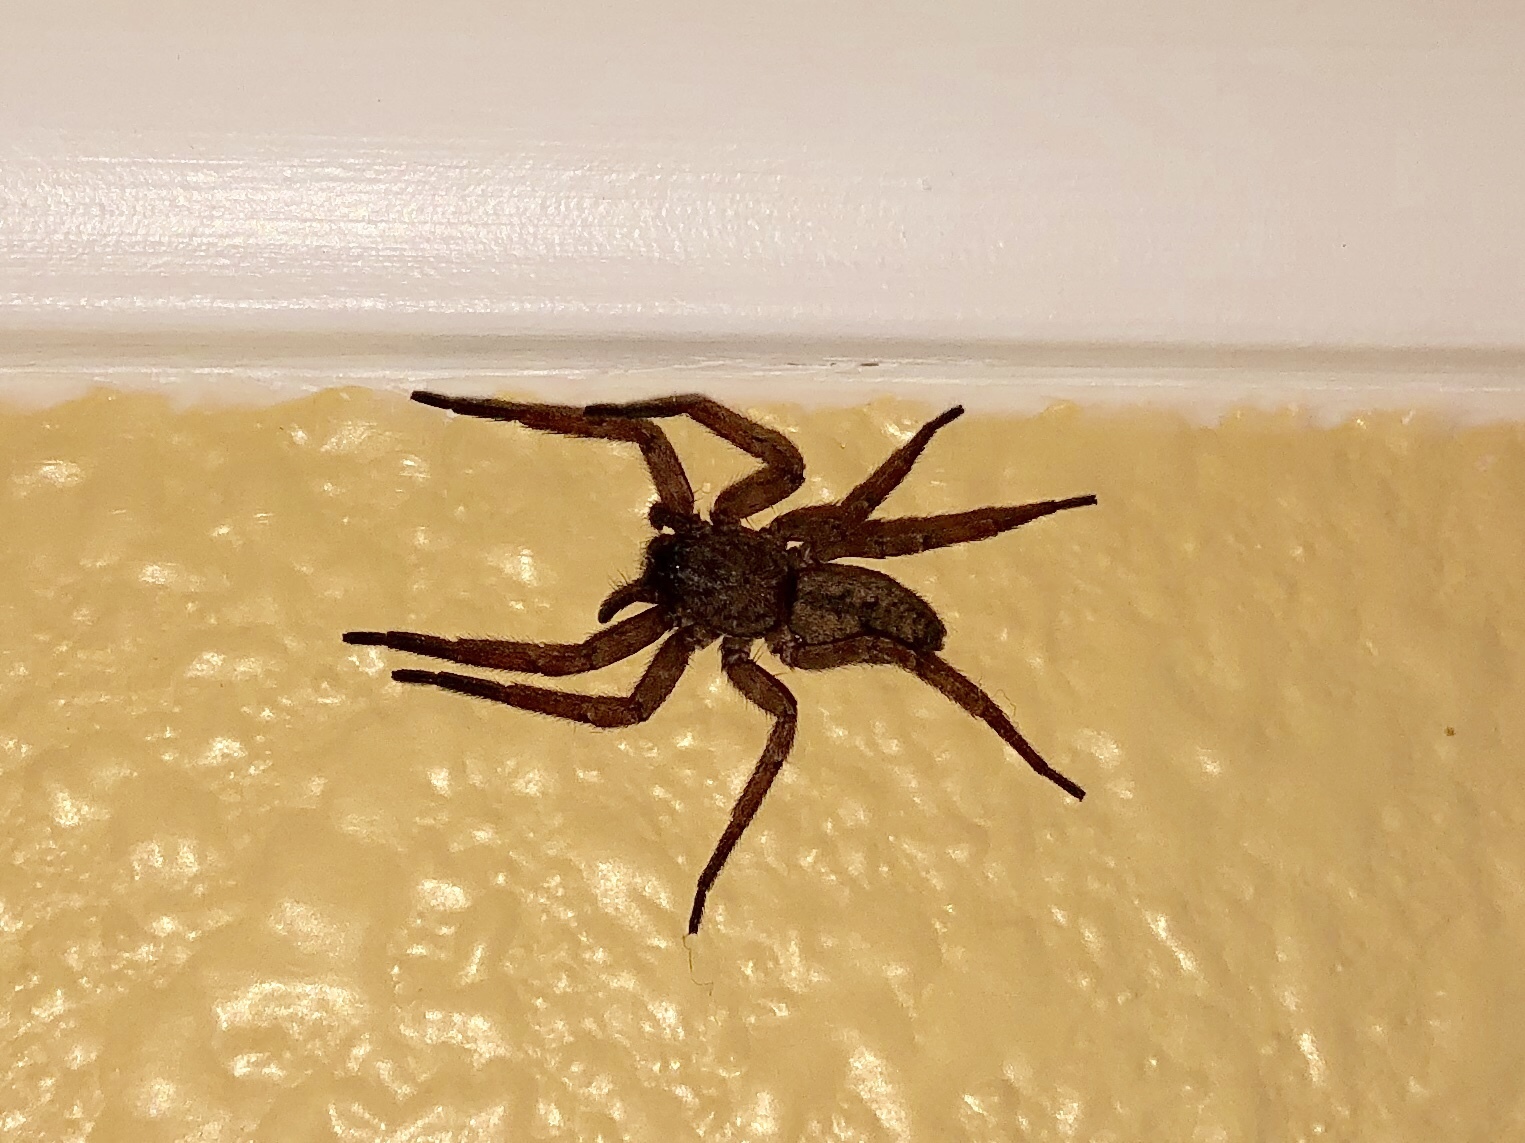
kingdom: Animalia
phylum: Arthropoda
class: Arachnida
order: Araneae
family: Zoropsidae
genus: Lauricius
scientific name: Lauricius hooki
